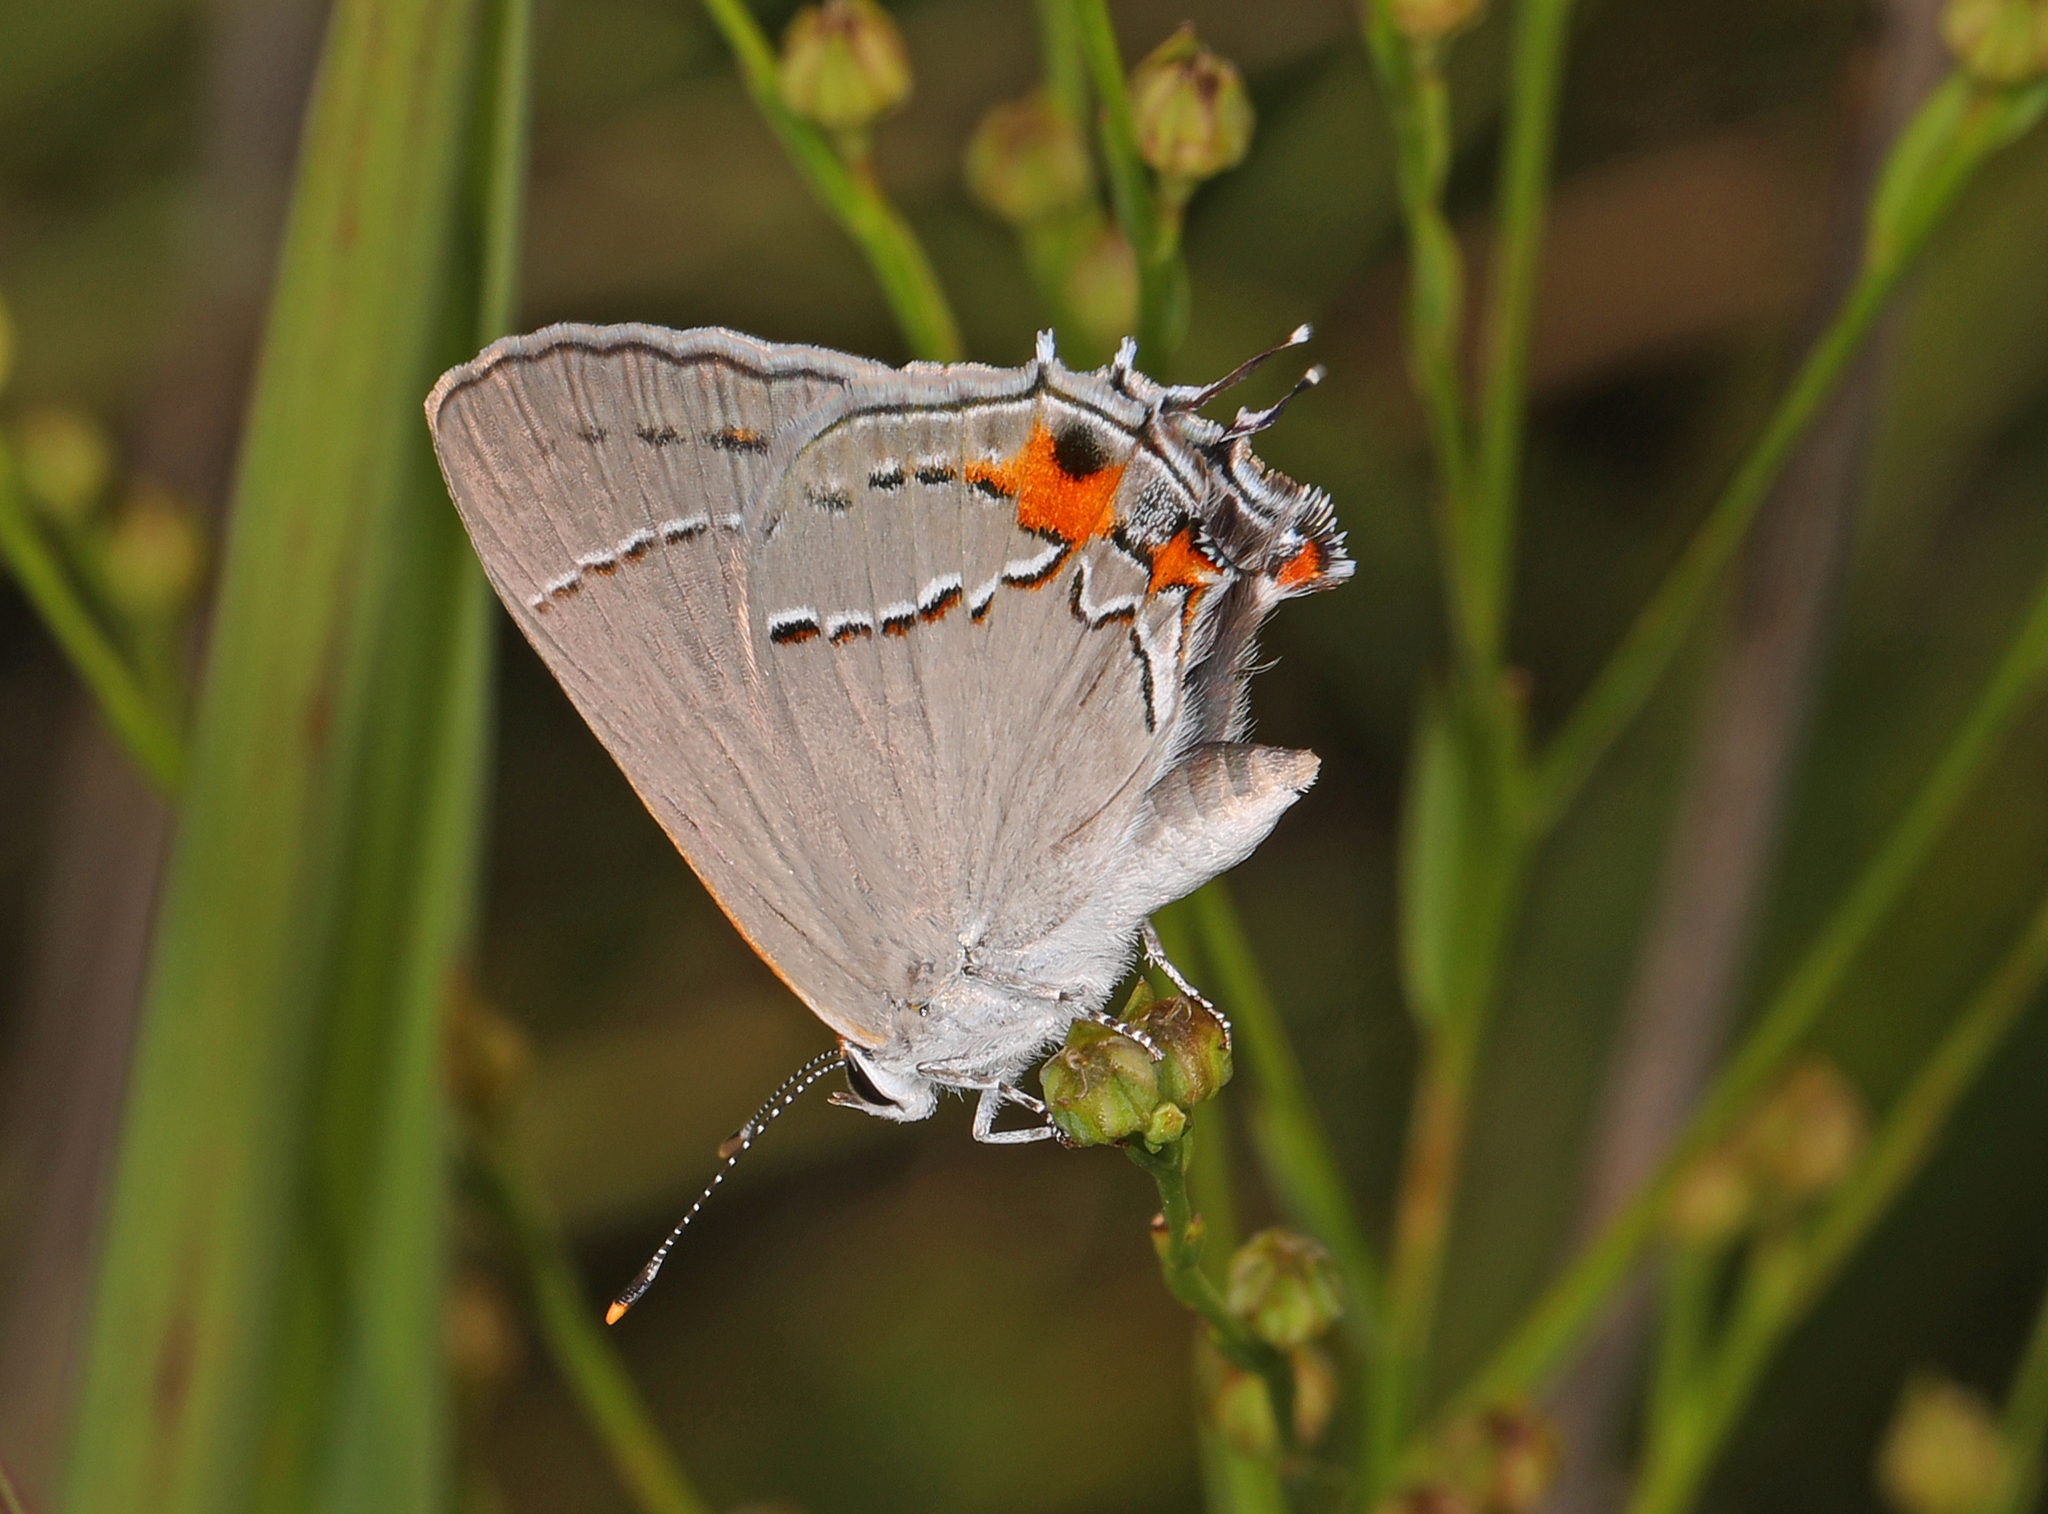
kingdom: Animalia
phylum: Arthropoda
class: Insecta
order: Lepidoptera
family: Lycaenidae
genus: Strymon
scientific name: Strymon melinus
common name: Gray hairstreak
